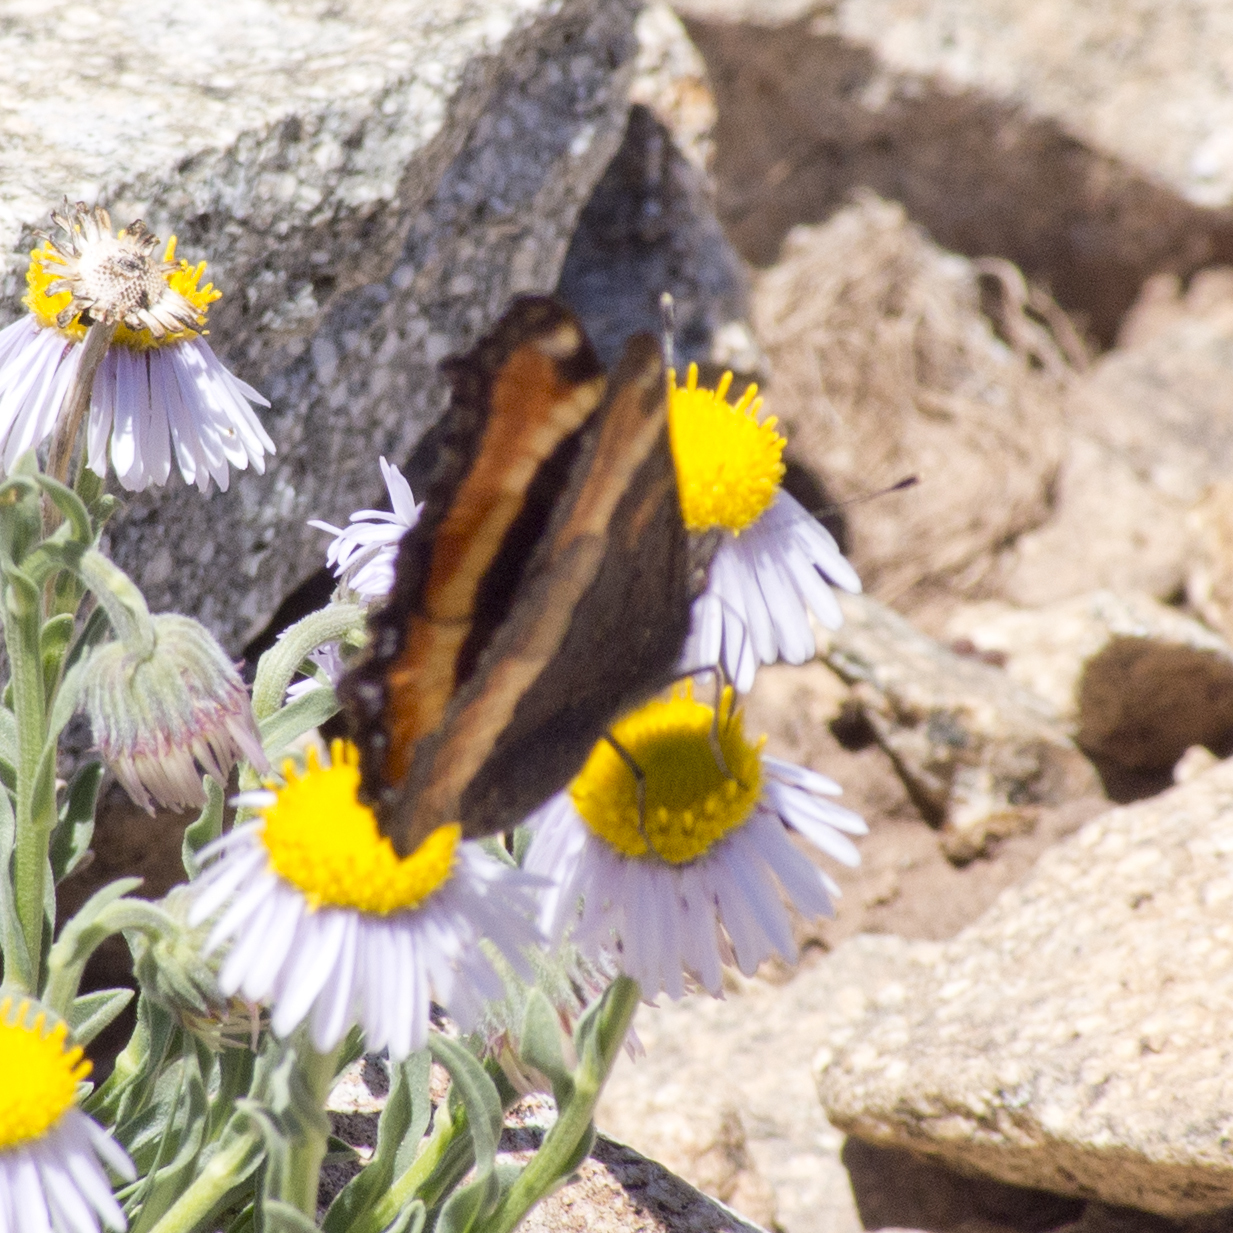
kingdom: Animalia
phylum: Arthropoda
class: Insecta
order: Lepidoptera
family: Nymphalidae
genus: Aglais
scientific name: Aglais milberti
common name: Milbert's tortoiseshell
